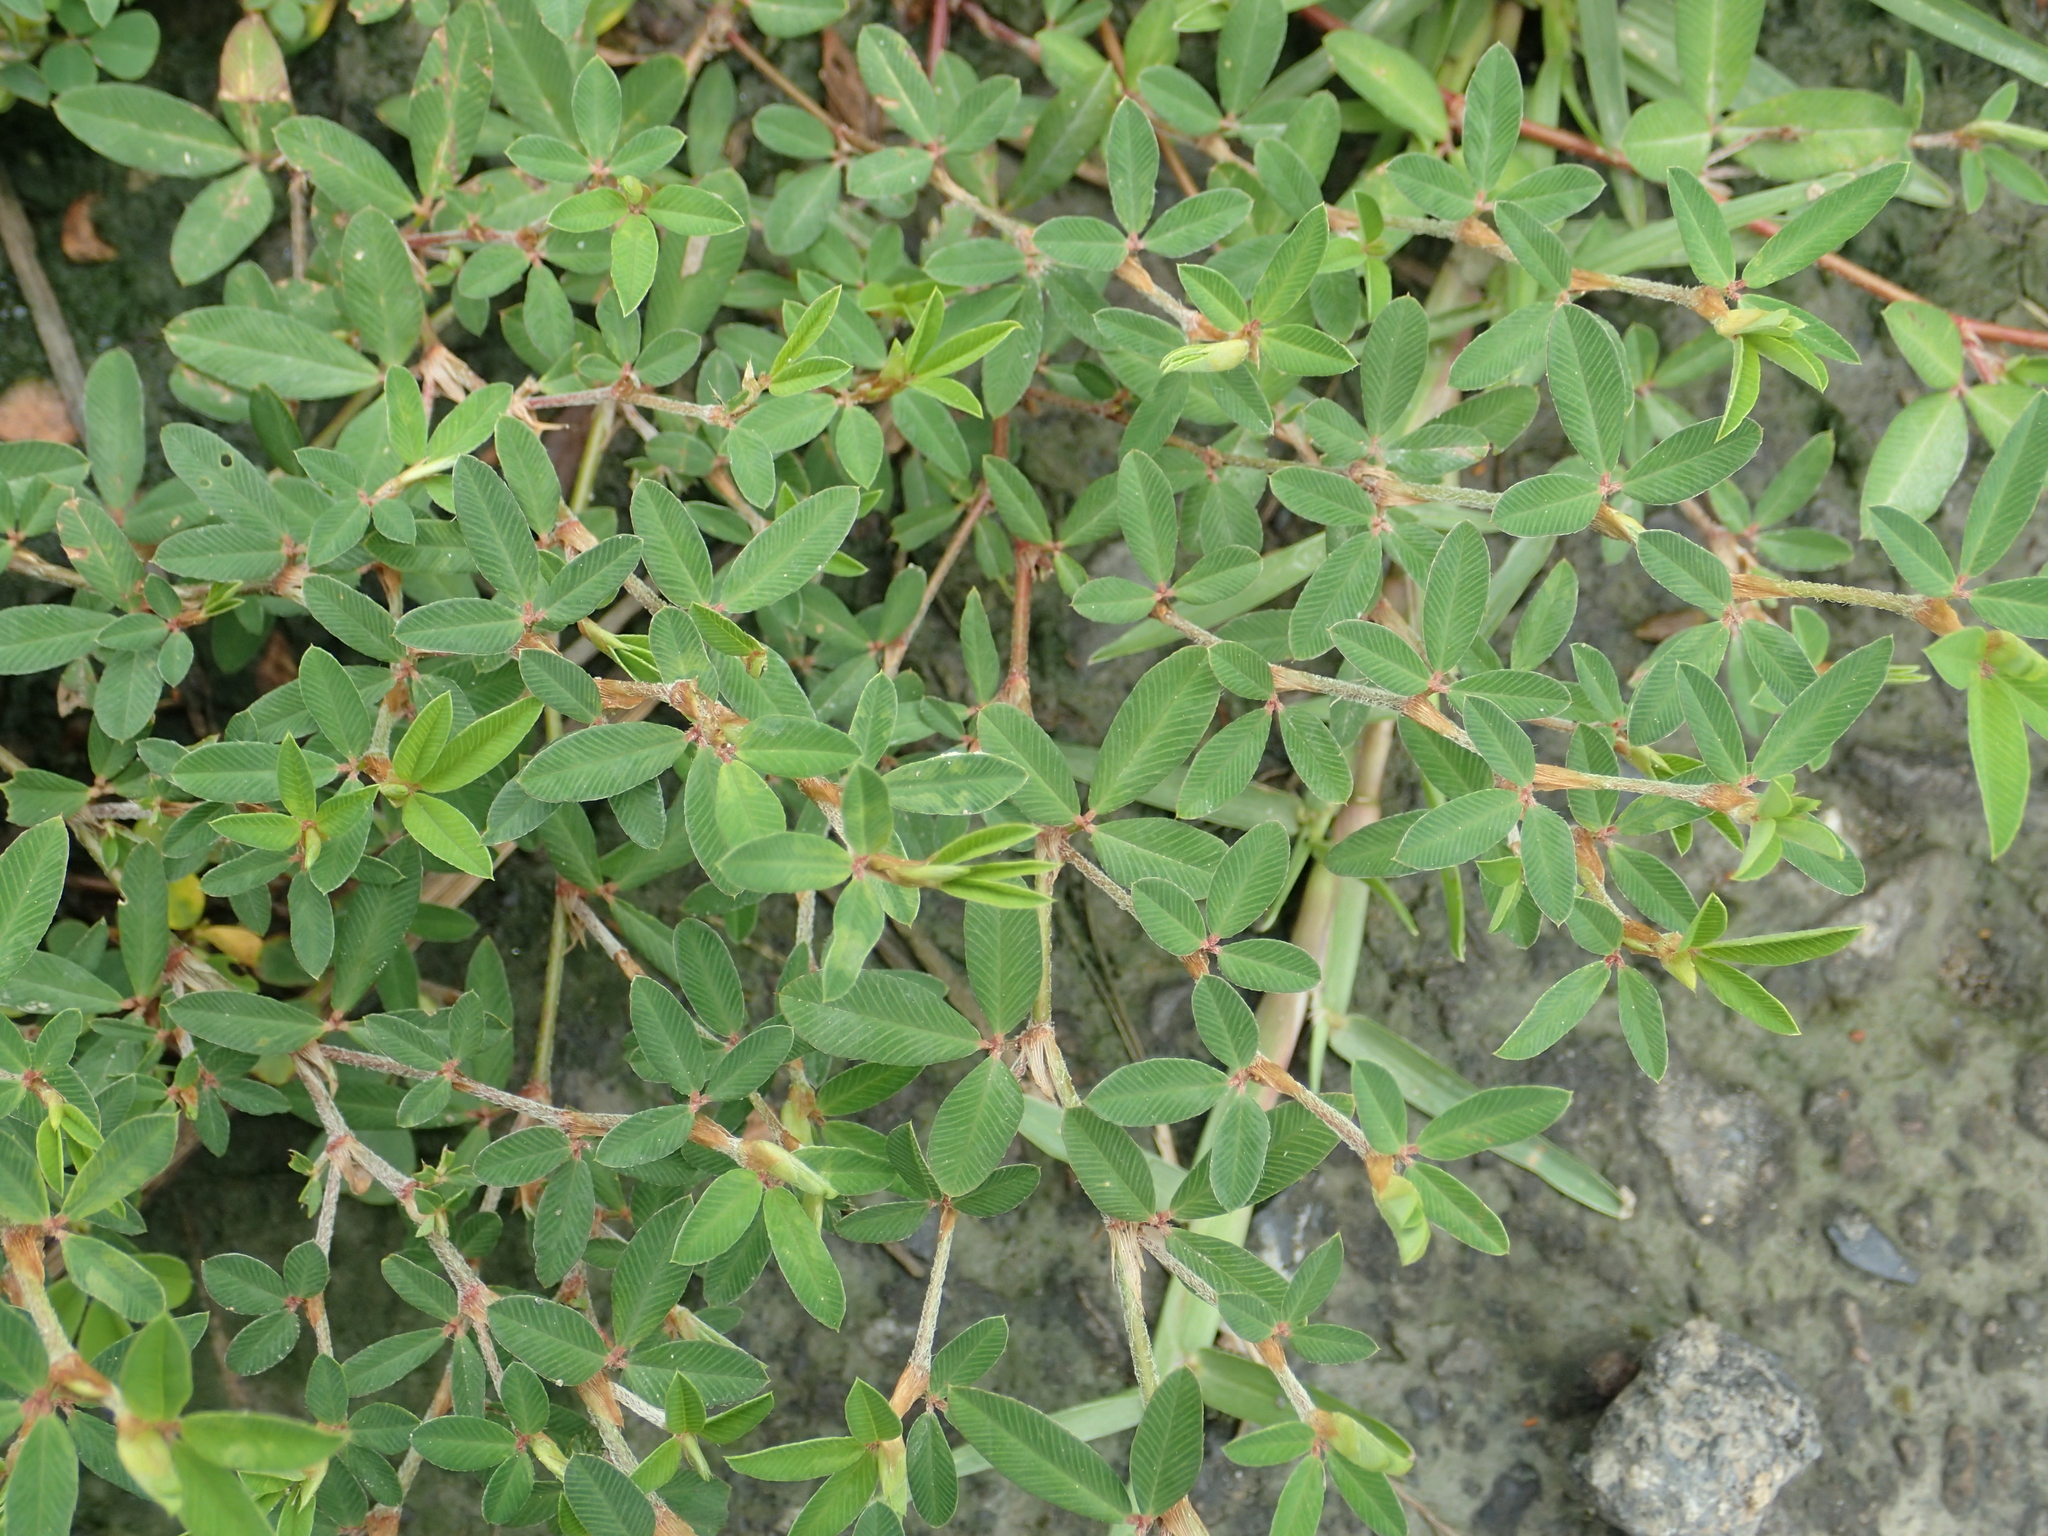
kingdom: Plantae
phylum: Tracheophyta
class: Magnoliopsida
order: Fabales
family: Fabaceae
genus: Kummerowia
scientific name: Kummerowia striata
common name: Japanese clover
